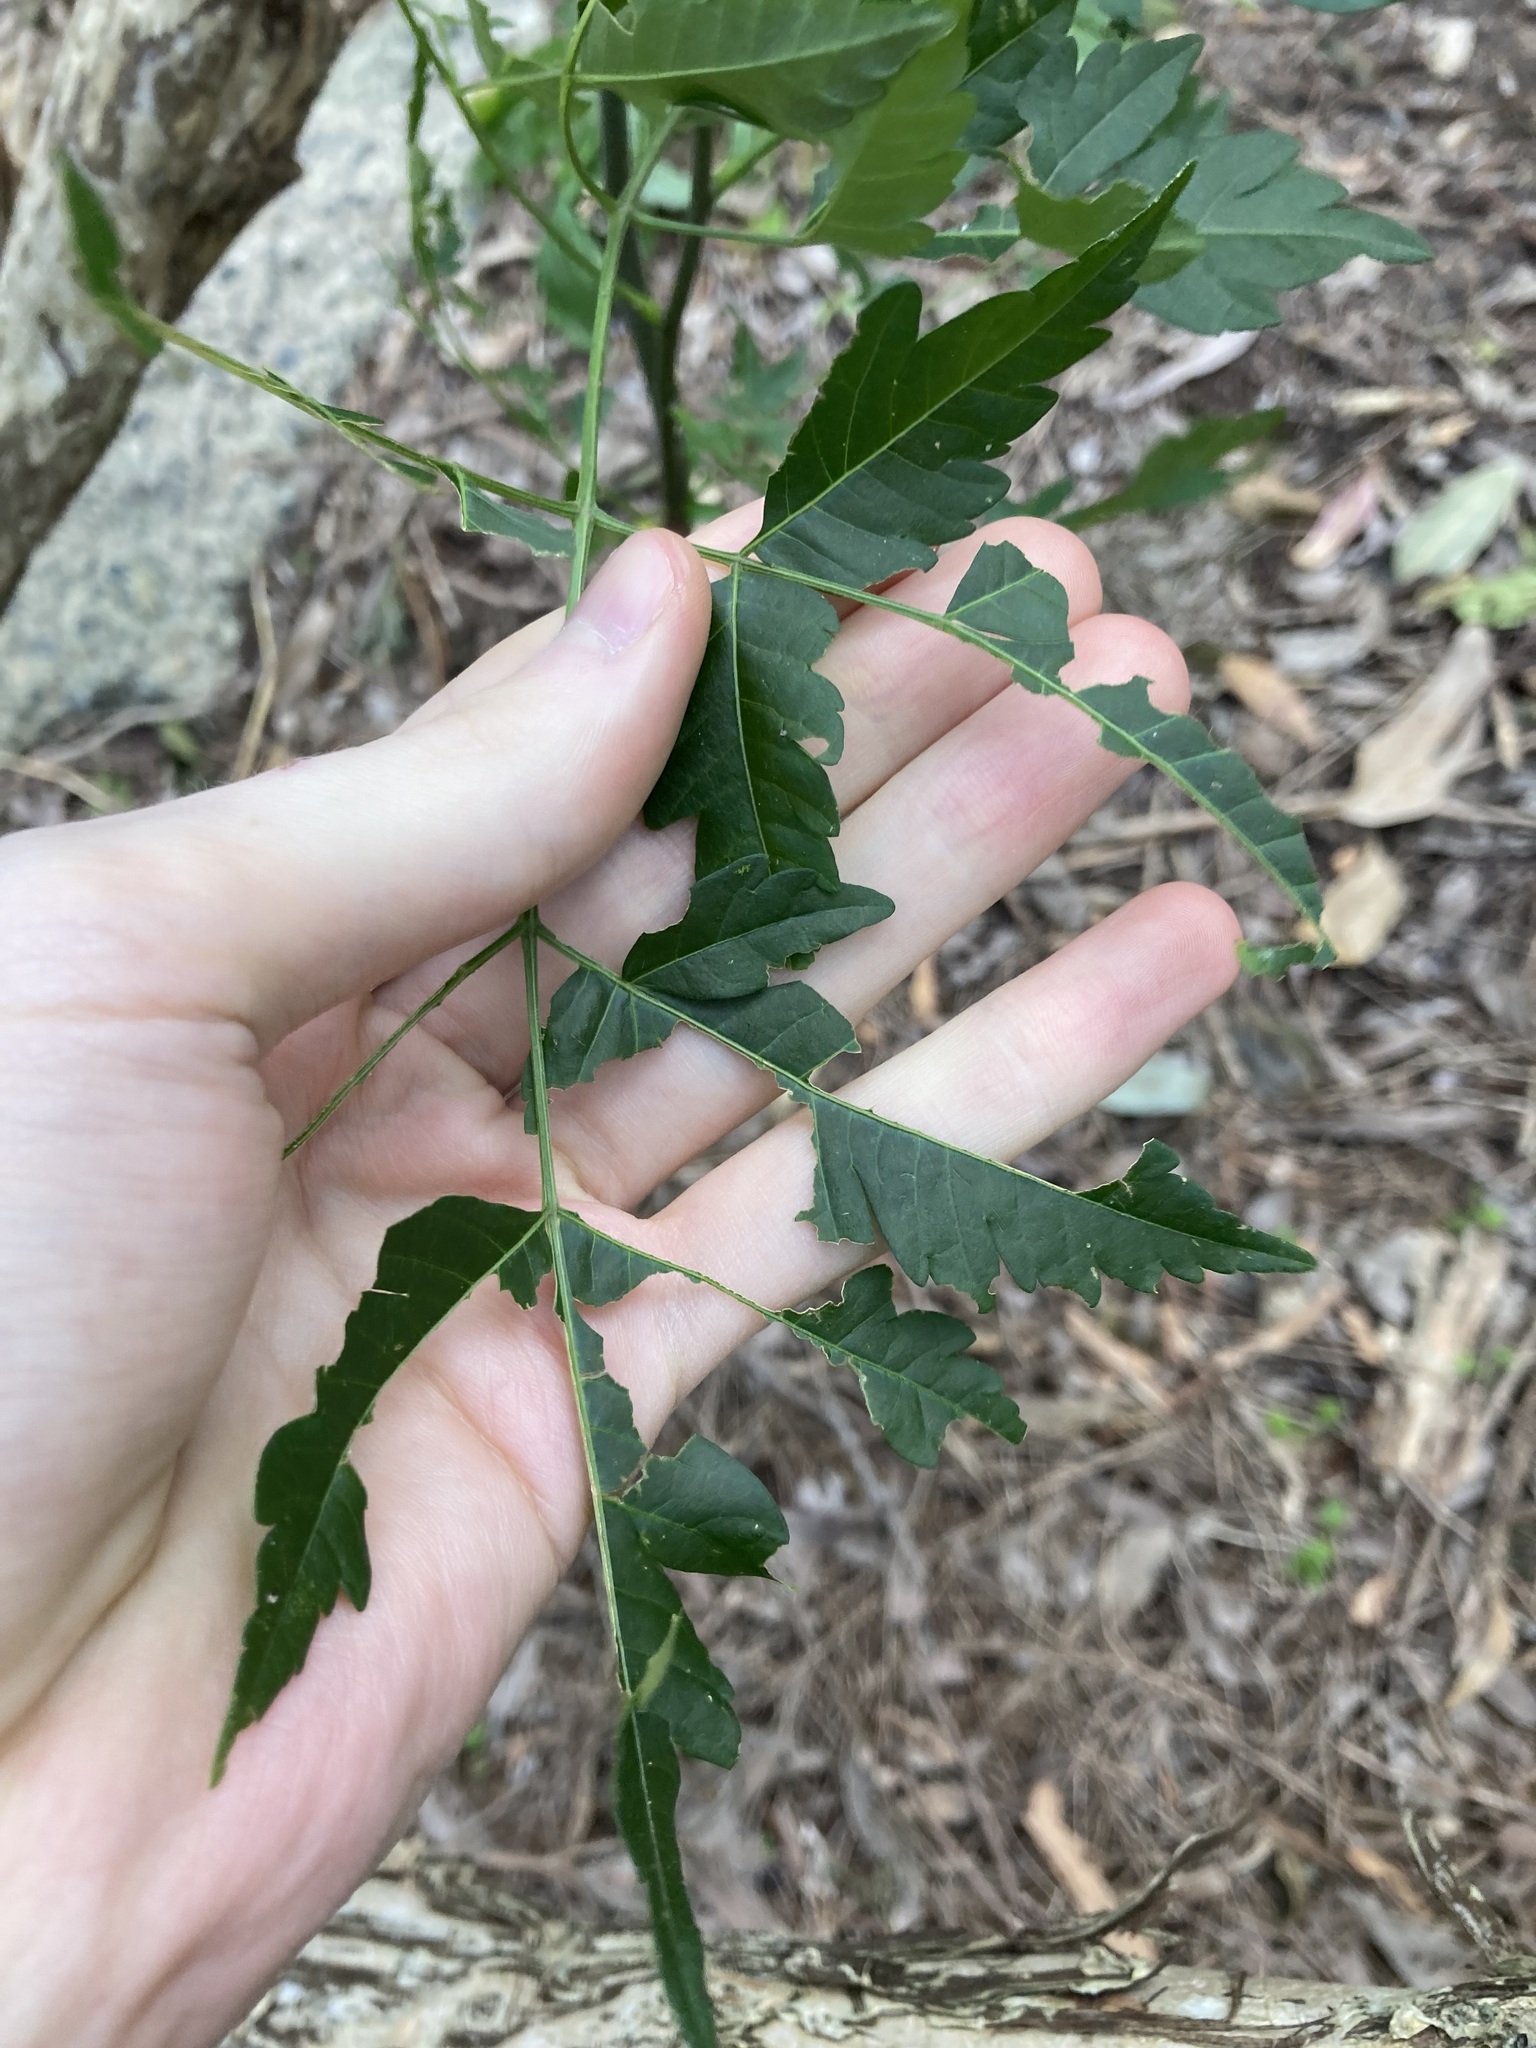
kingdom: Plantae
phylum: Tracheophyta
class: Magnoliopsida
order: Sapindales
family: Meliaceae
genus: Melia
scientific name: Melia azedarach
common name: Chinaberrytree
